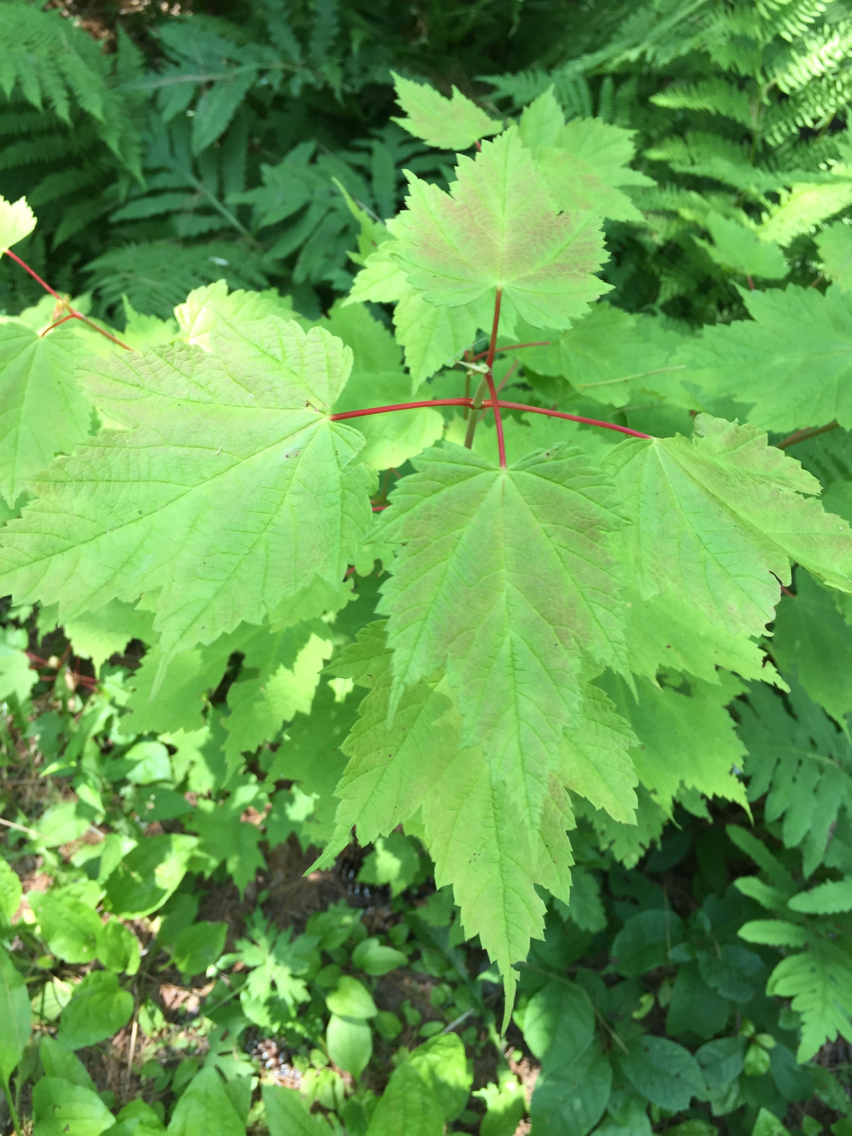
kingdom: Plantae
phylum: Tracheophyta
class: Magnoliopsida
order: Sapindales
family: Sapindaceae
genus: Acer
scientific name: Acer spicatum
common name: Mountain maple
